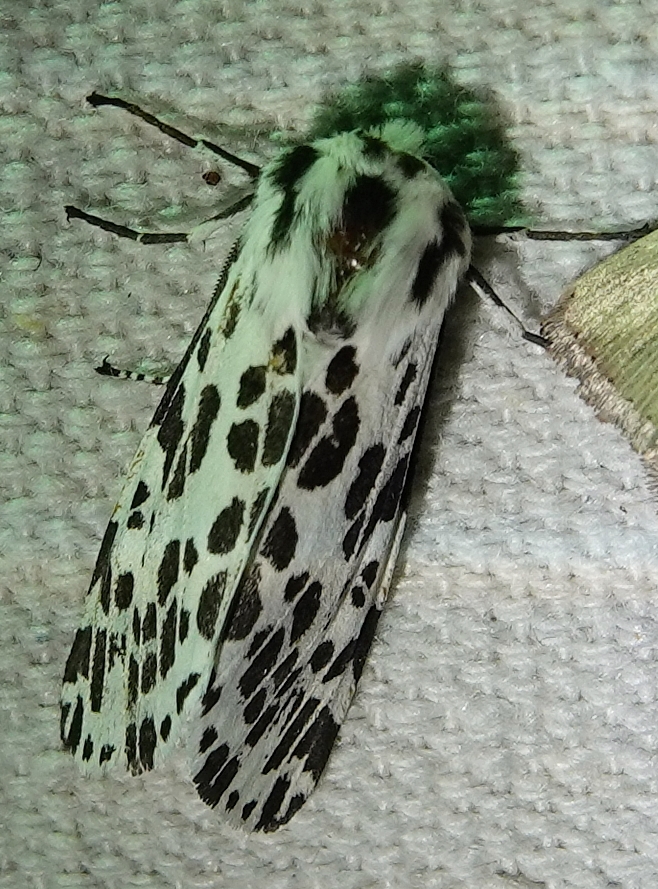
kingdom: Animalia
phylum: Arthropoda
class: Insecta
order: Lepidoptera
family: Erebidae
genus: Hypercompe
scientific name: Hypercompe permaculata
